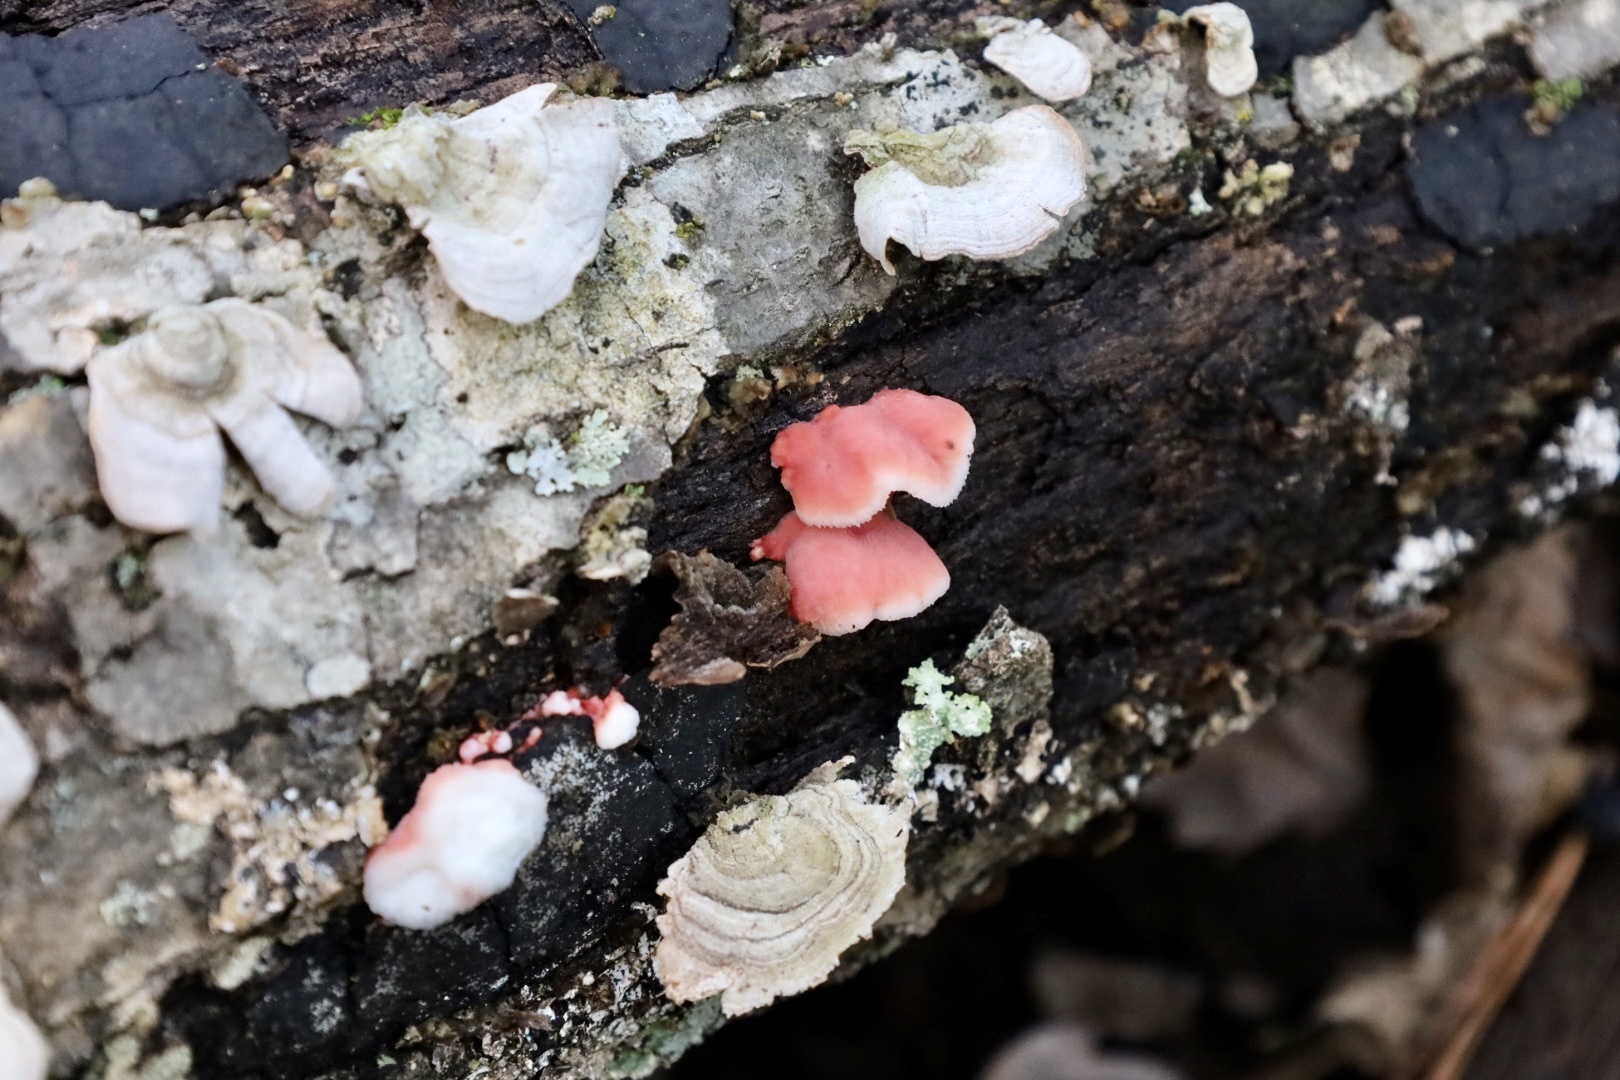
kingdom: Fungi
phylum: Basidiomycota
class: Agaricomycetes
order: Polyporales
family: Irpicaceae
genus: Byssomerulius
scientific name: Byssomerulius incarnatus
